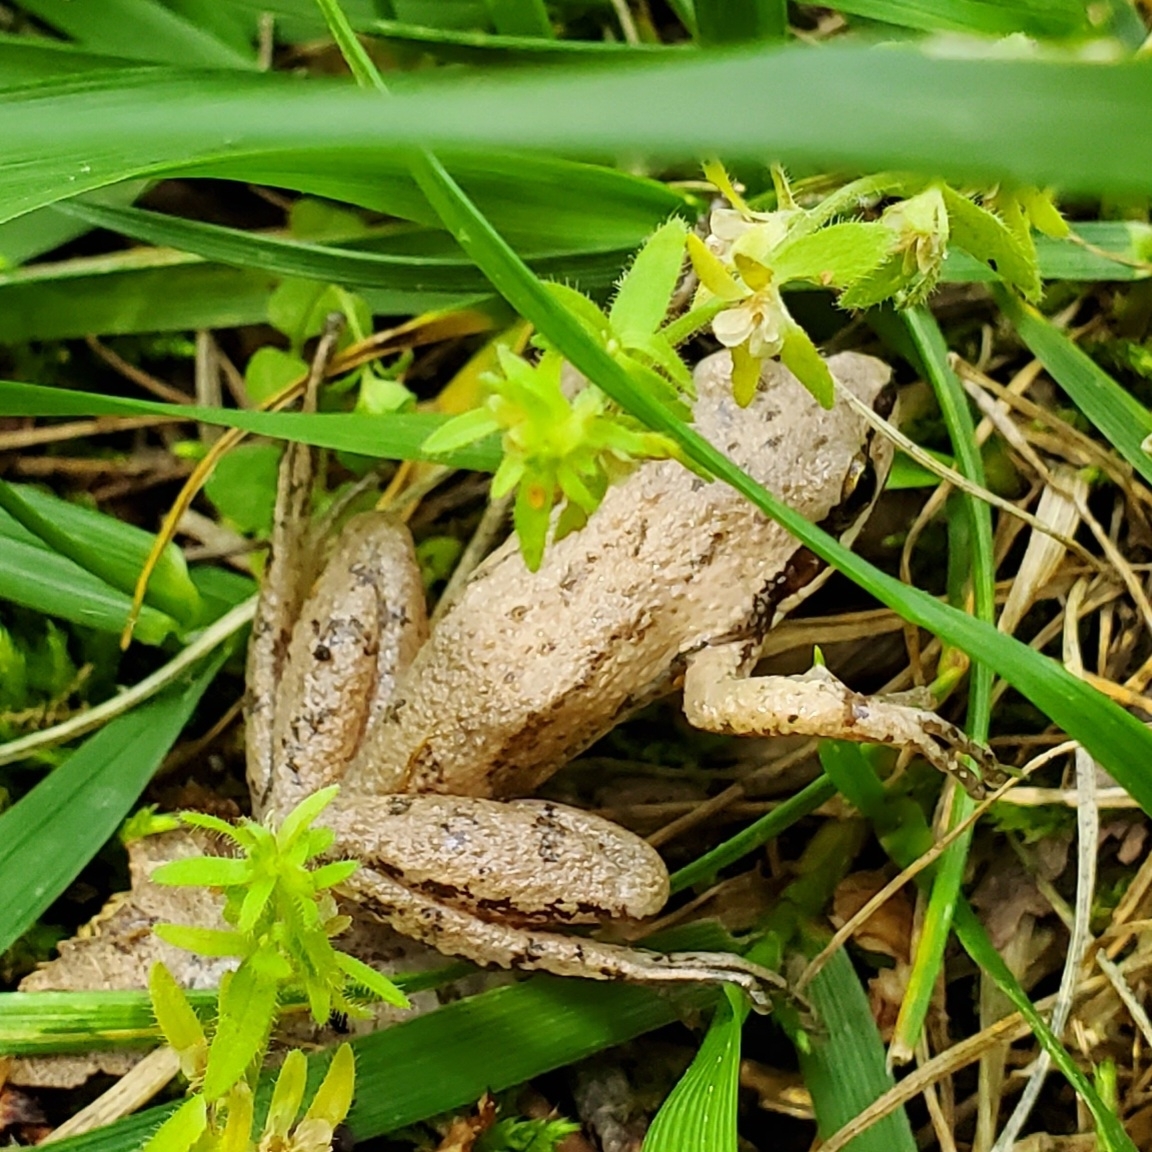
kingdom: Animalia
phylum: Chordata
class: Amphibia
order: Anura
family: Hylidae
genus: Pseudacris
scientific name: Pseudacris feriarum
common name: Upland chorus frog
